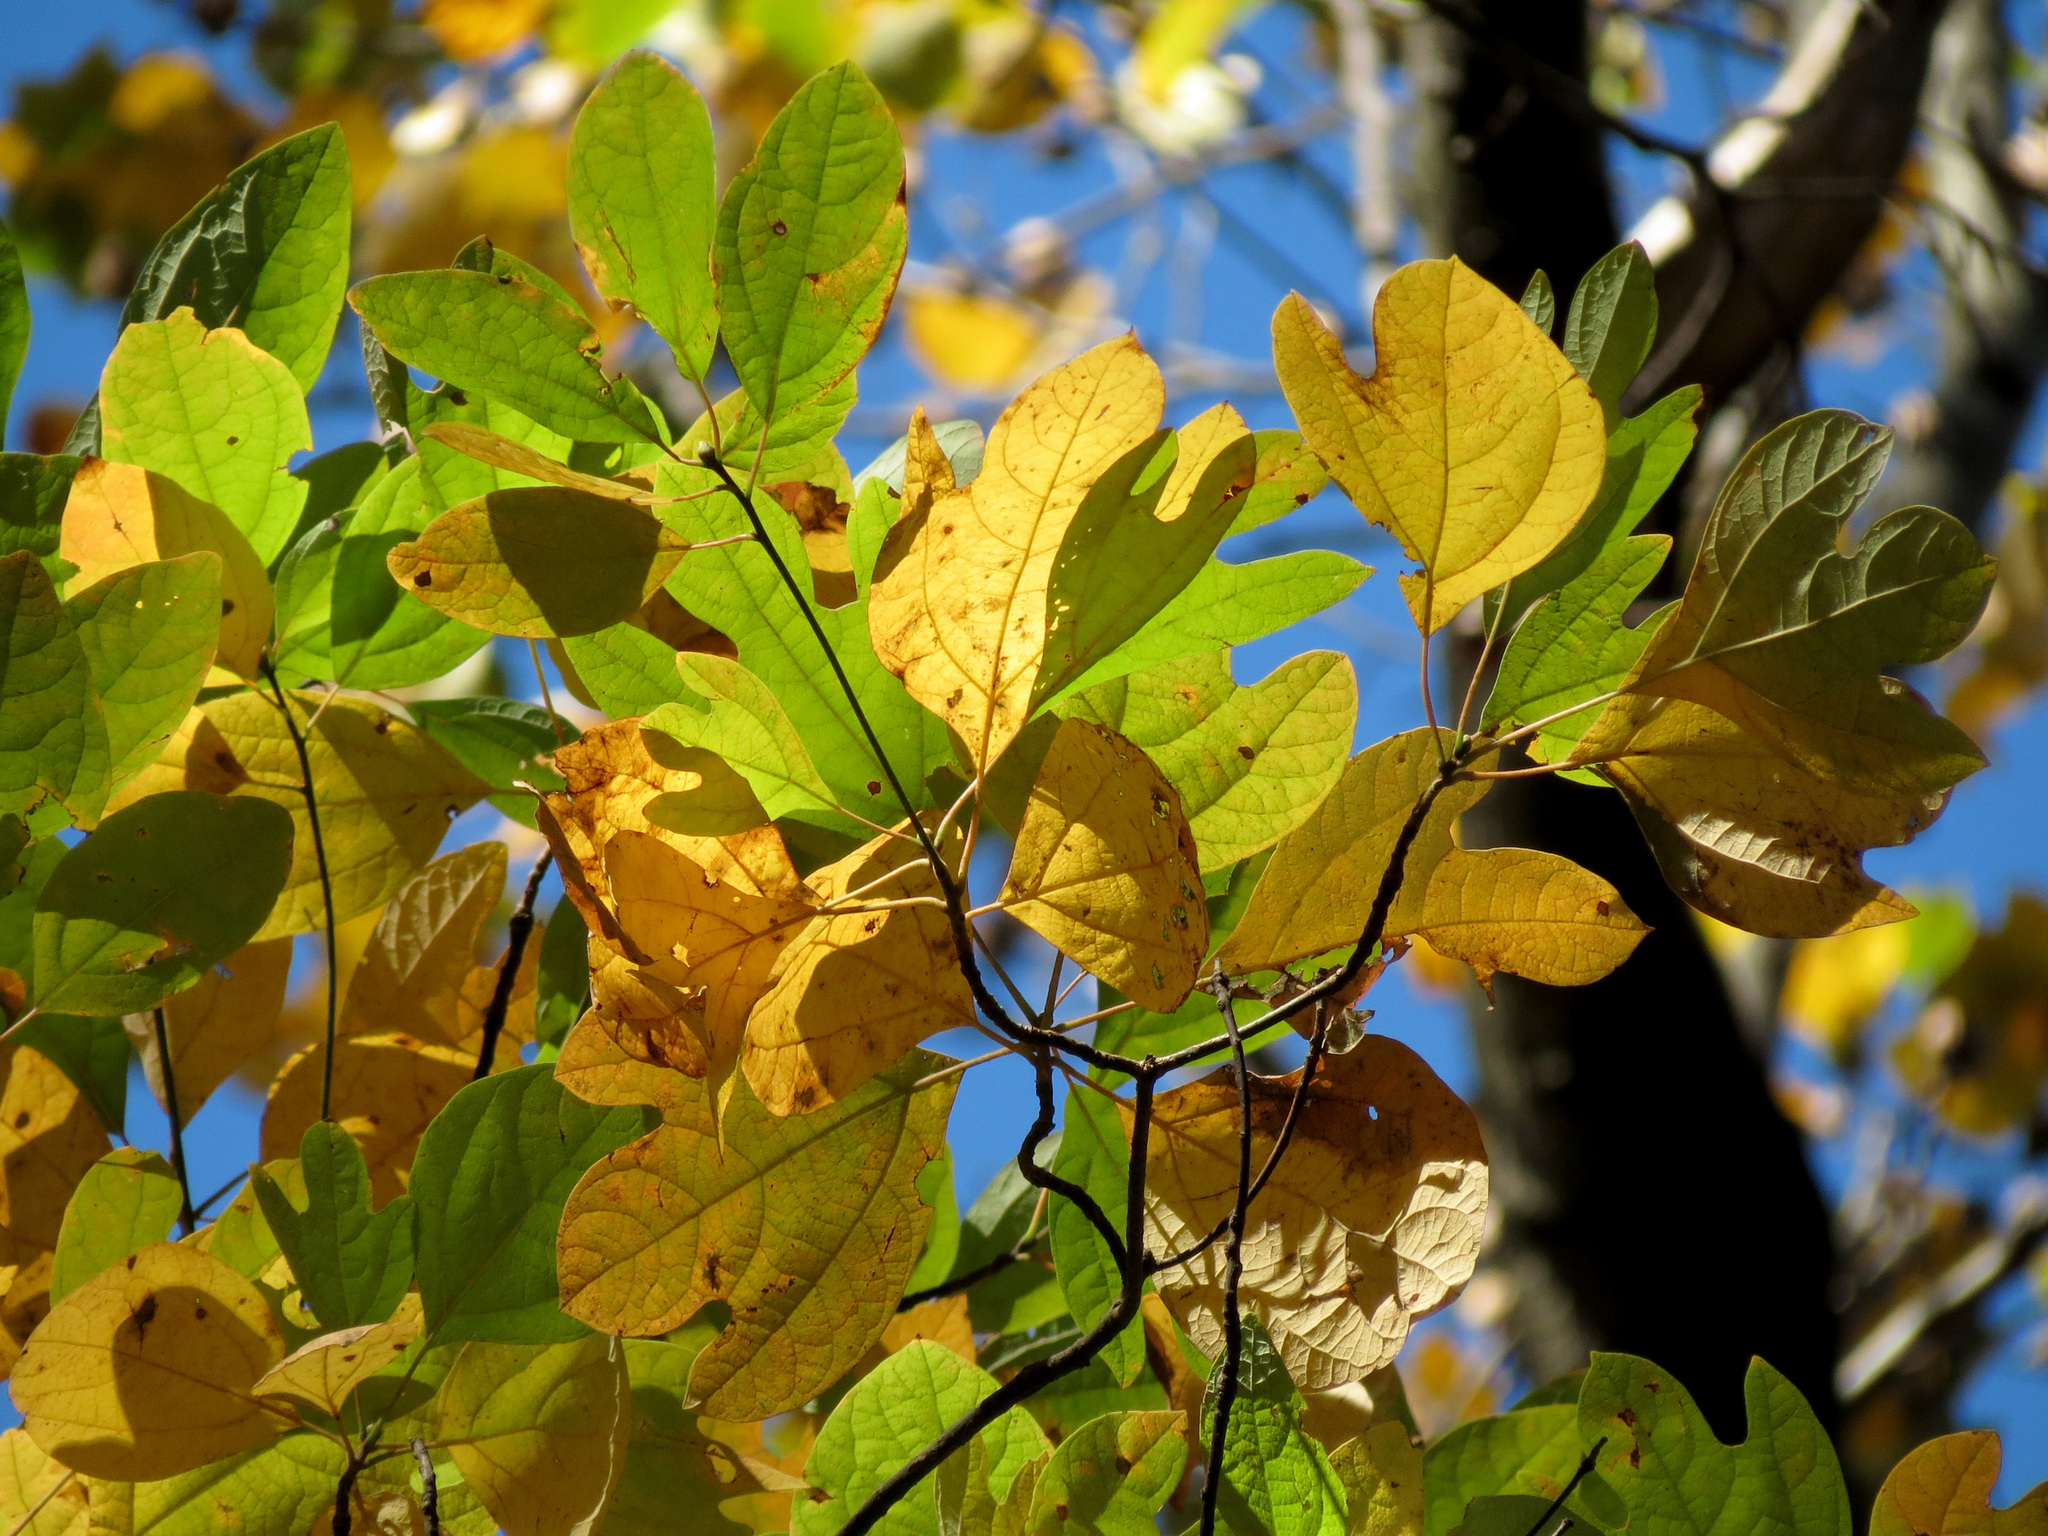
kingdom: Plantae
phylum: Tracheophyta
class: Magnoliopsida
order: Laurales
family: Lauraceae
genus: Sassafras
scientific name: Sassafras albidum
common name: Sassafras
